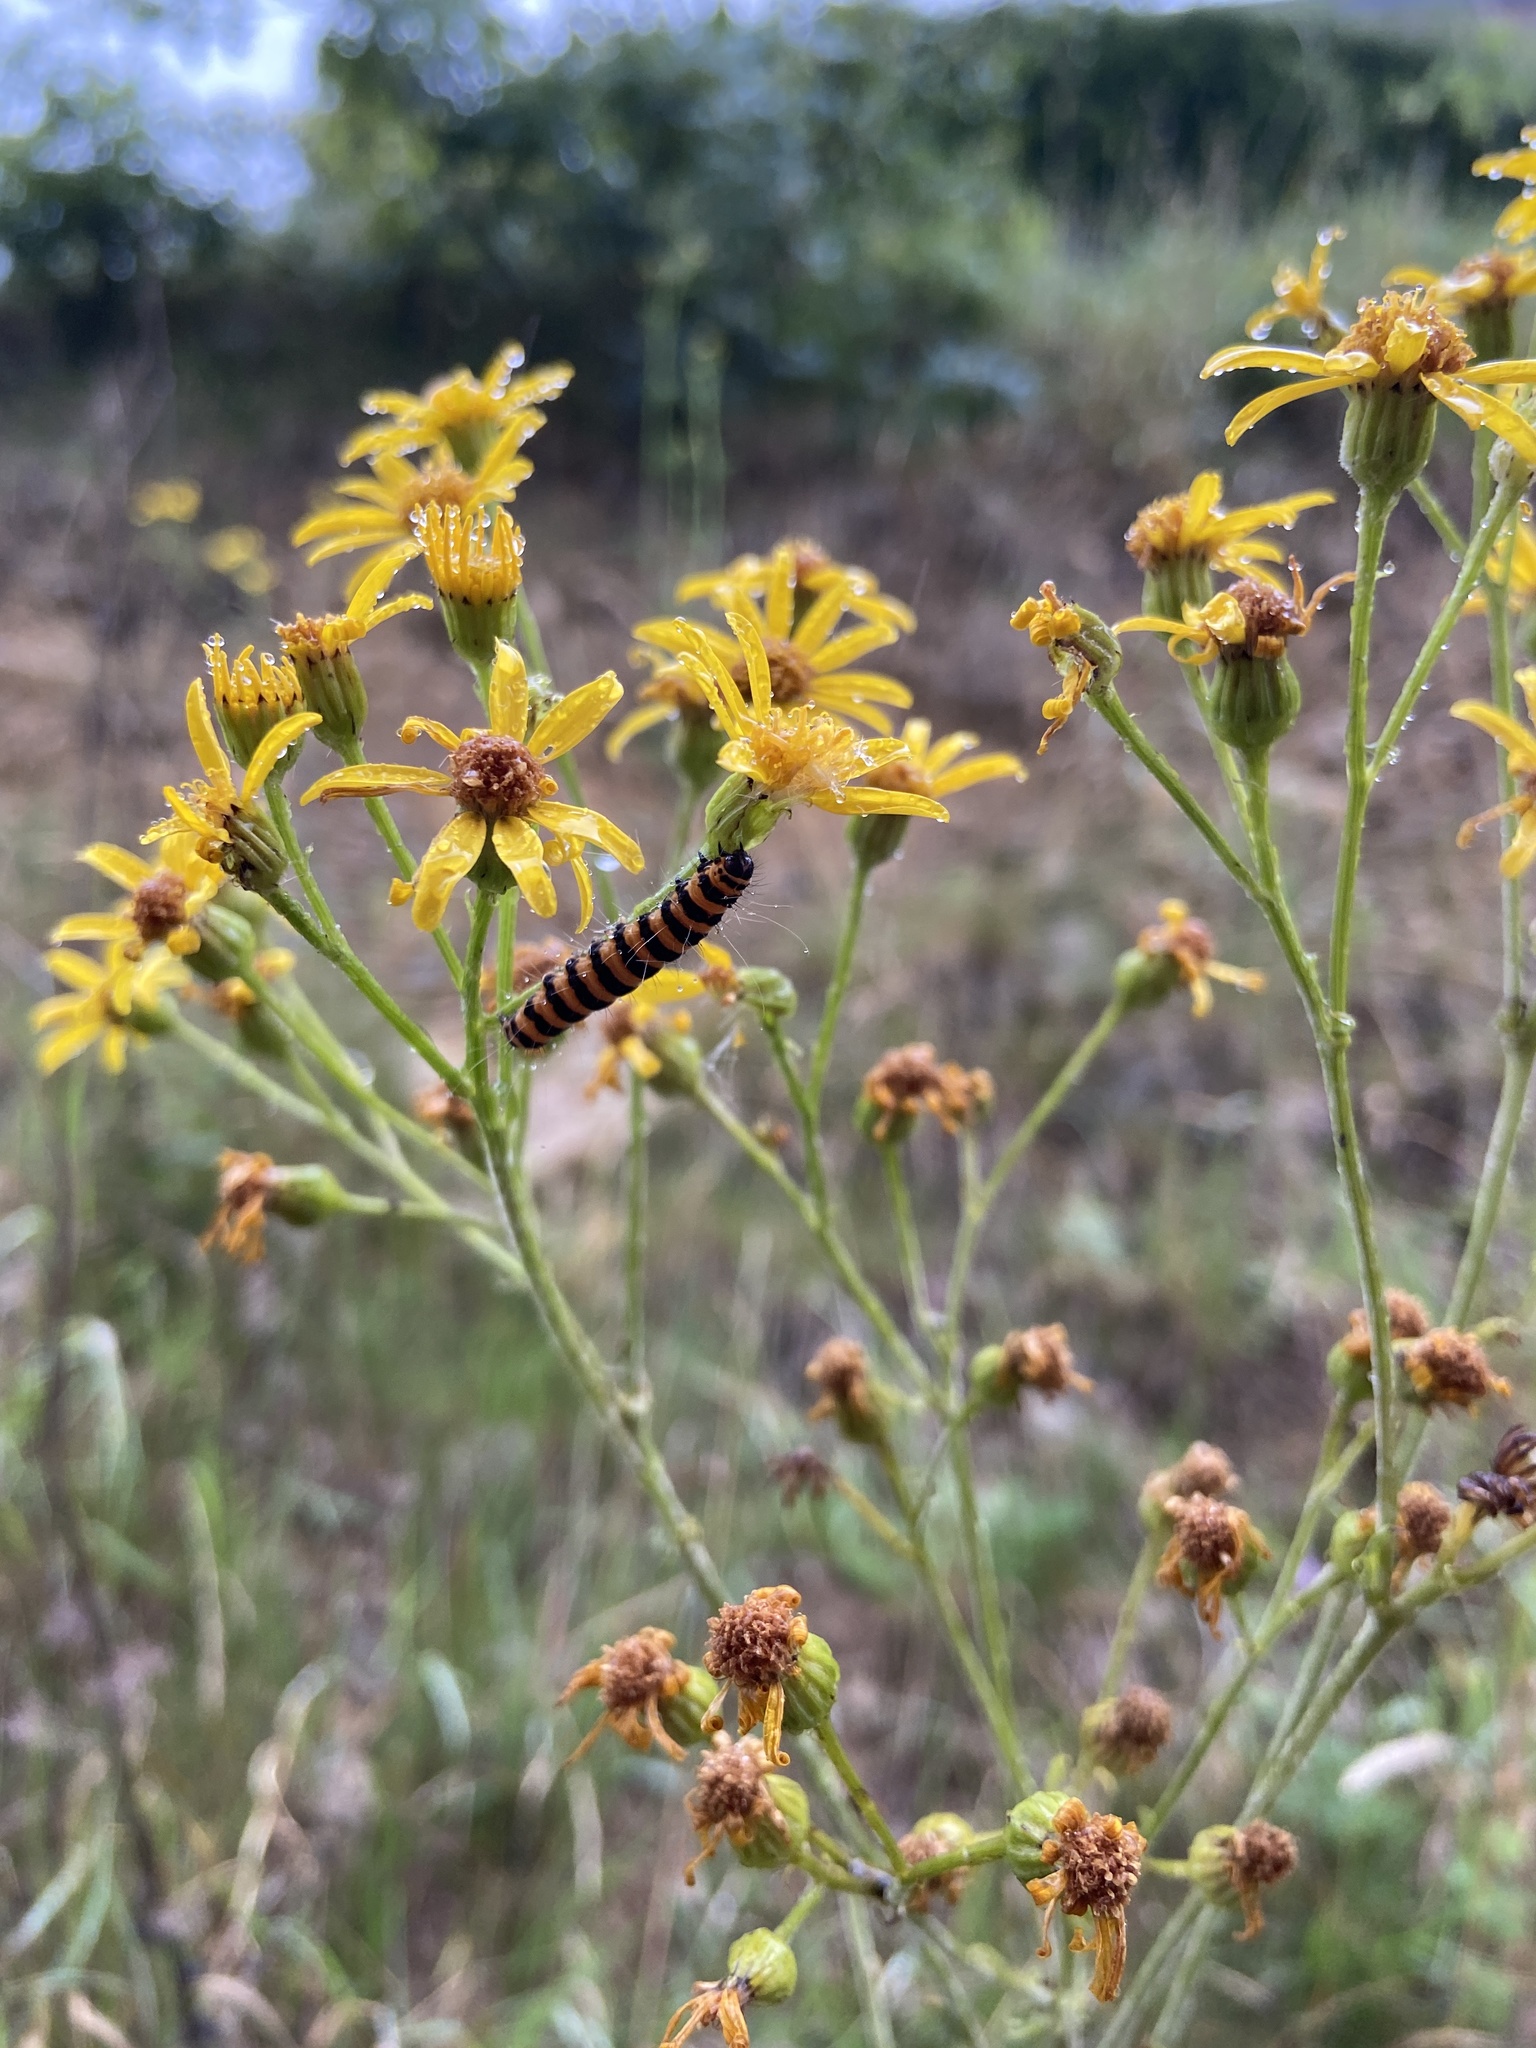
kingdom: Animalia
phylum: Arthropoda
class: Insecta
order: Lepidoptera
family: Erebidae
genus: Tyria
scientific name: Tyria jacobaeae
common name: Cinnabar
